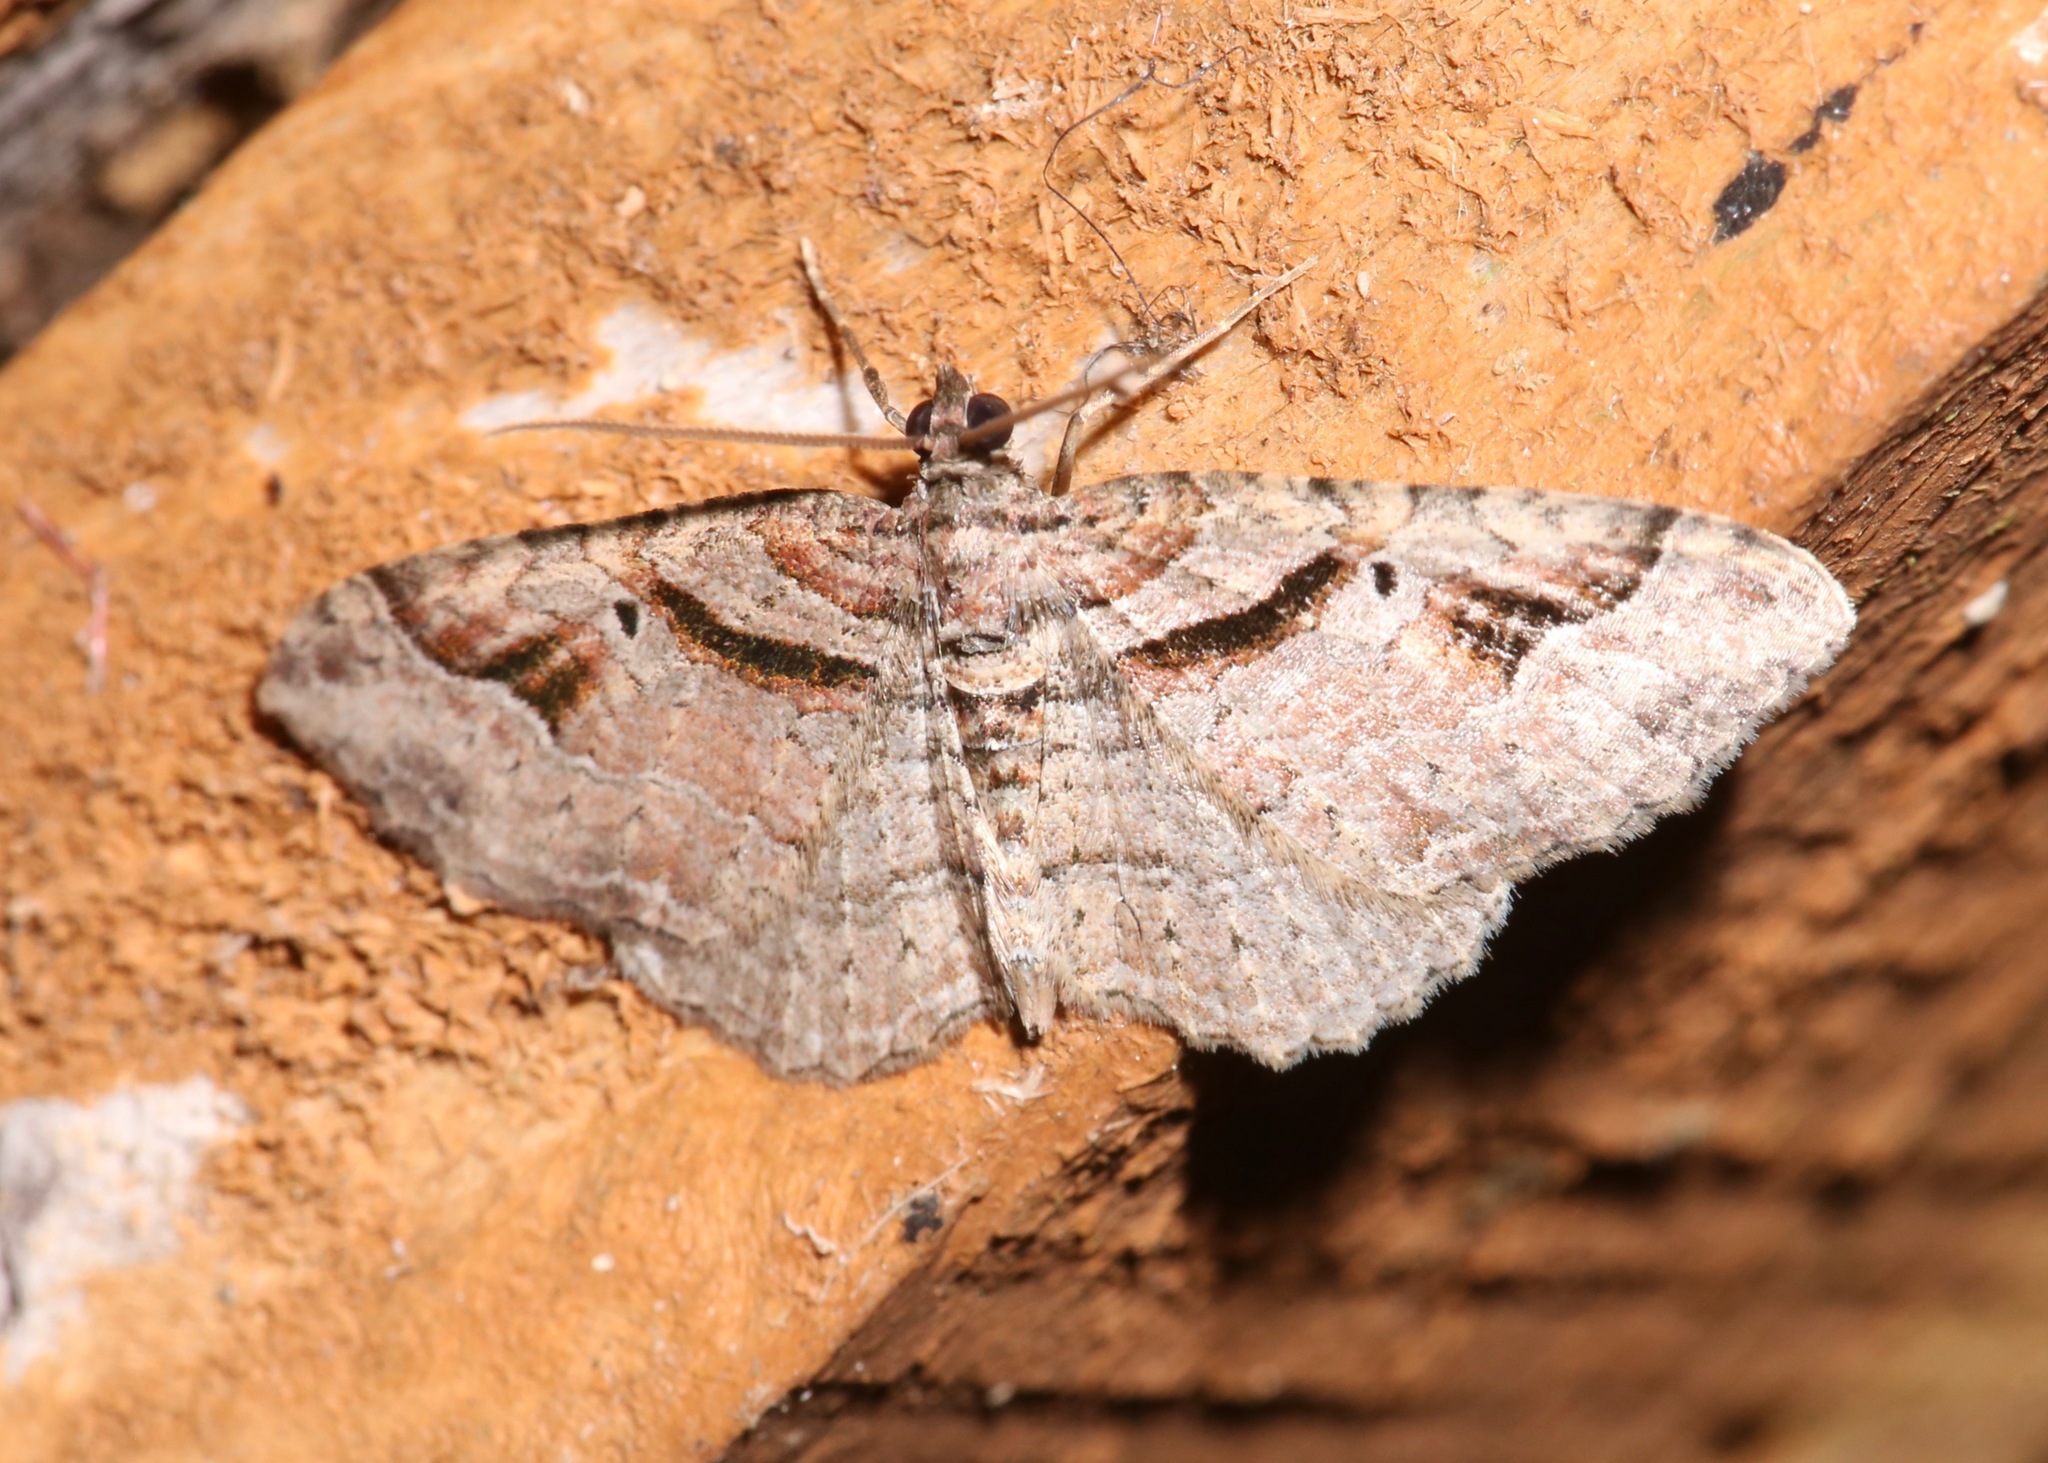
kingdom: Animalia
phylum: Arthropoda
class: Insecta
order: Lepidoptera
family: Geometridae
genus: Costaconvexa
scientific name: Costaconvexa centrostrigaria
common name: Bent-line carpet
